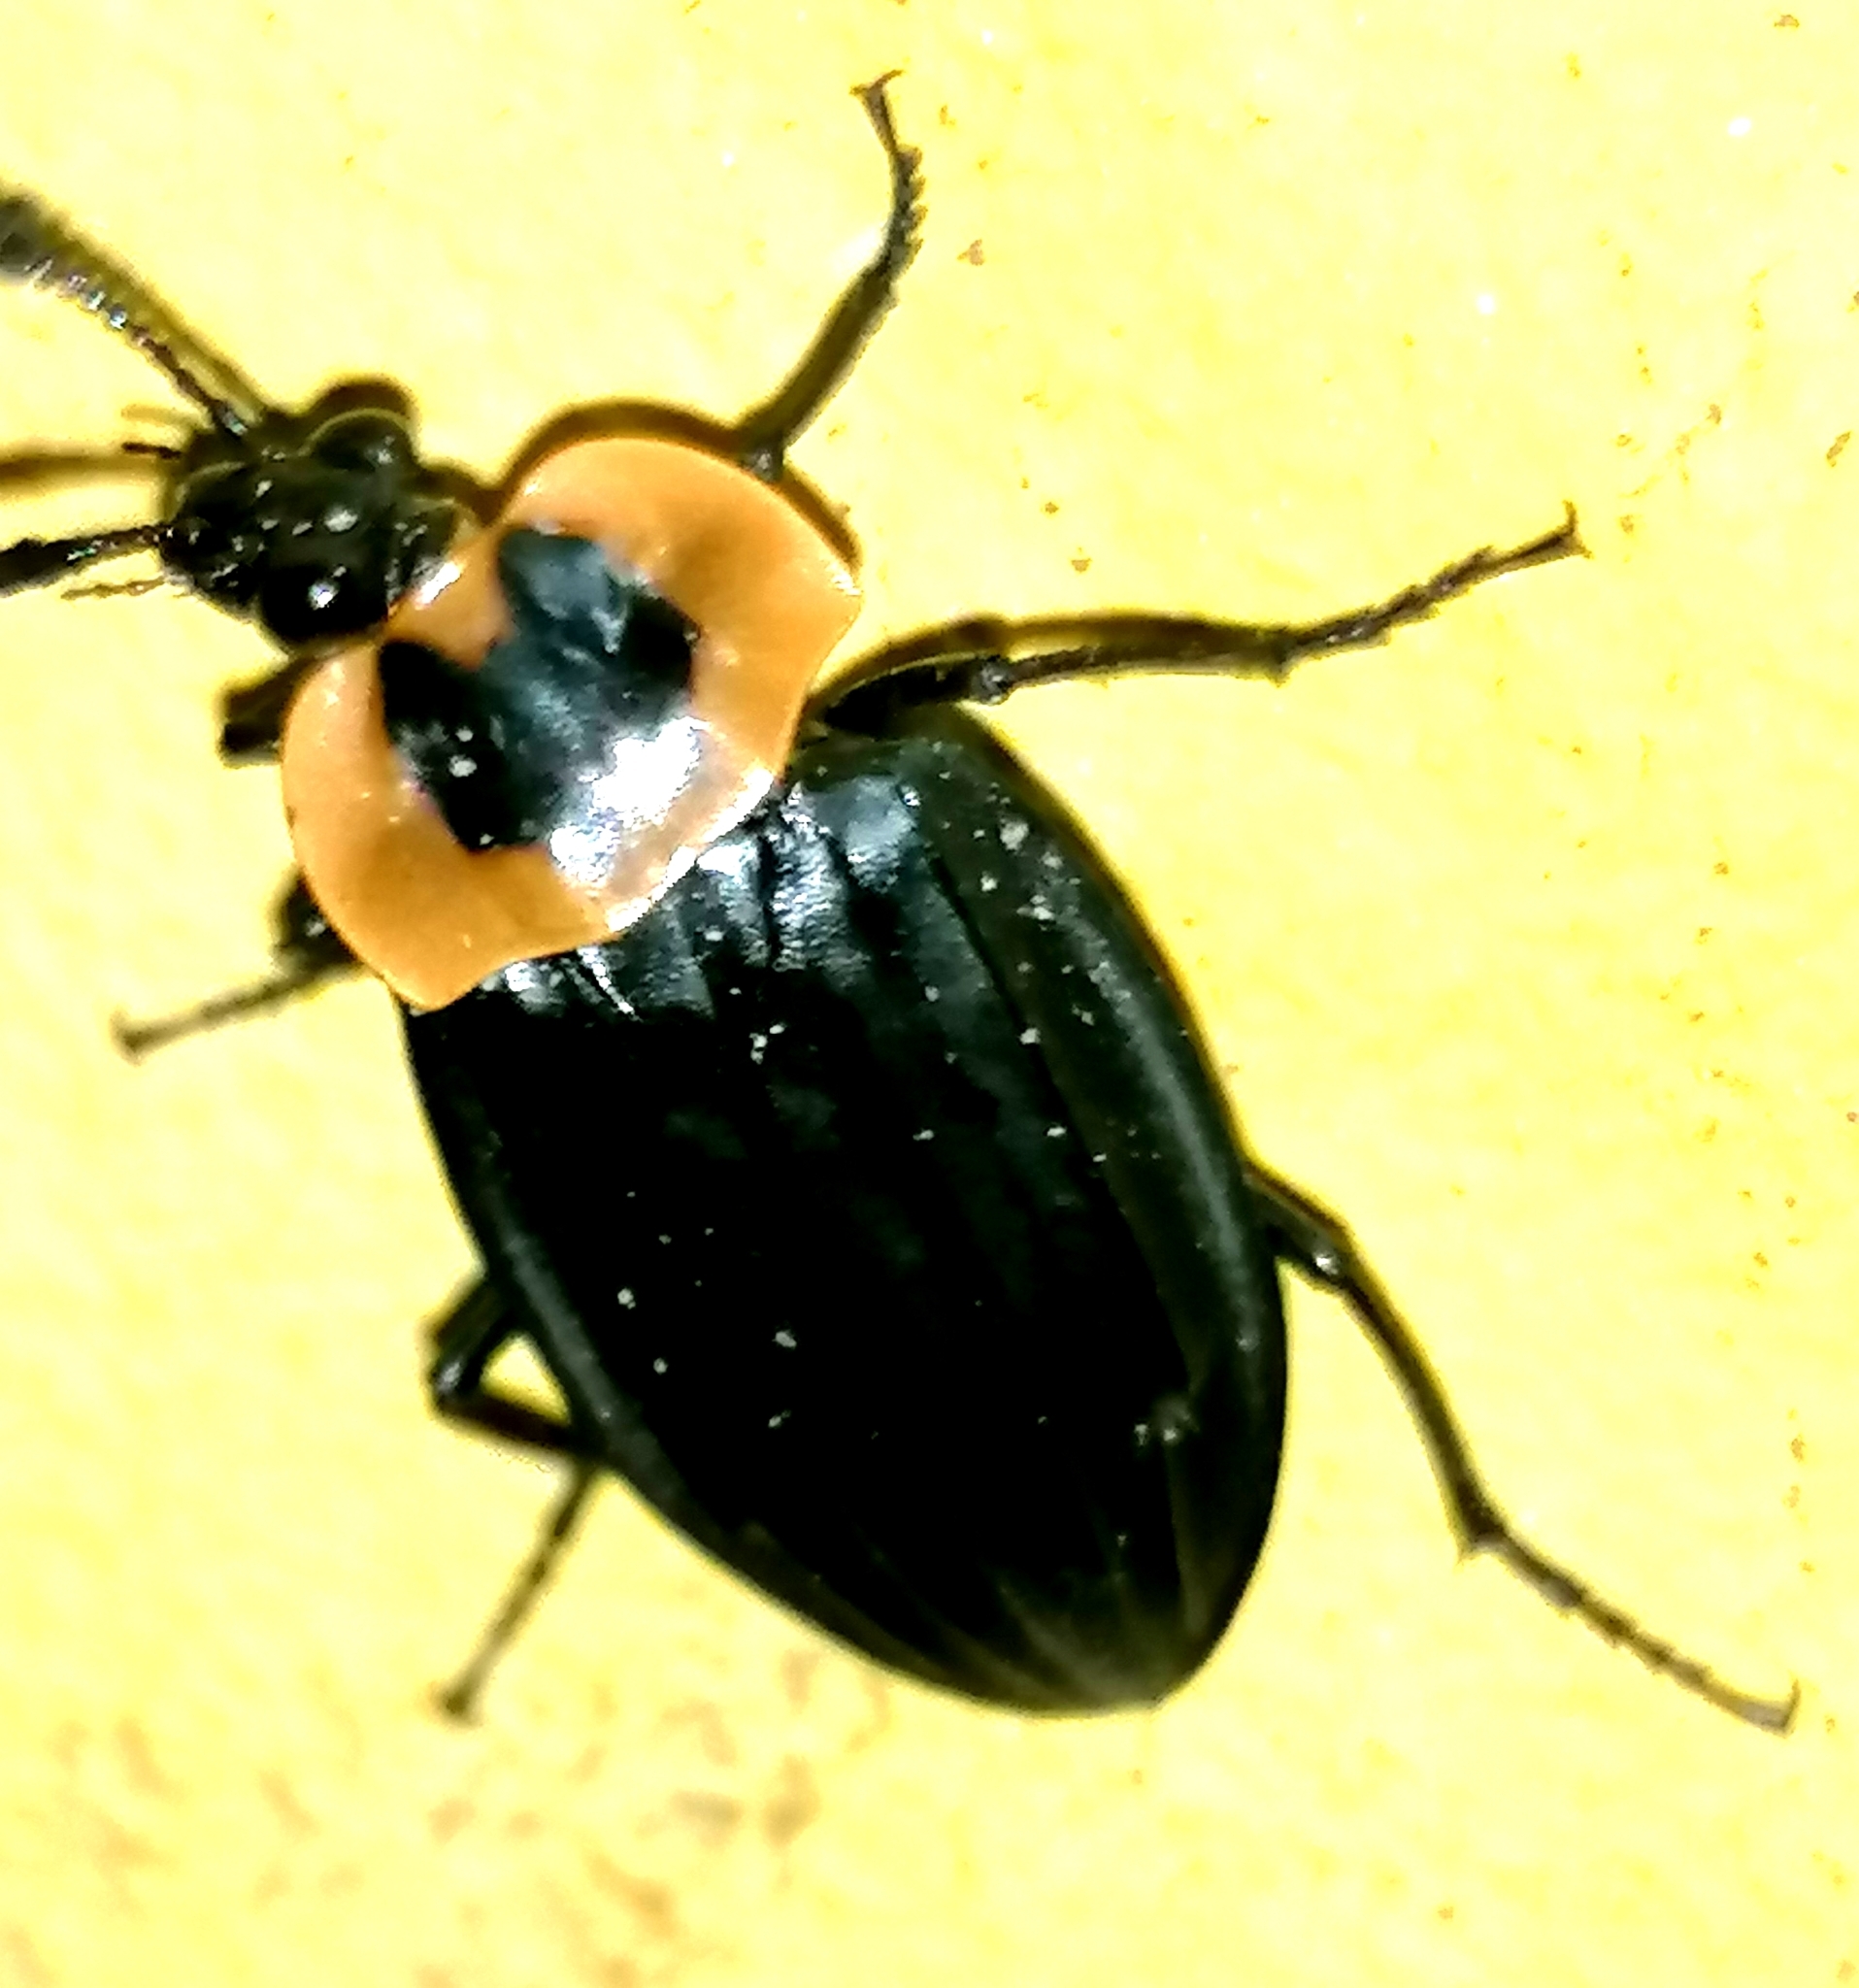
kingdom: Animalia
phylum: Arthropoda
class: Insecta
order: Coleoptera
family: Staphylinidae
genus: Oxelytrum
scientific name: Oxelytrum discicolle
